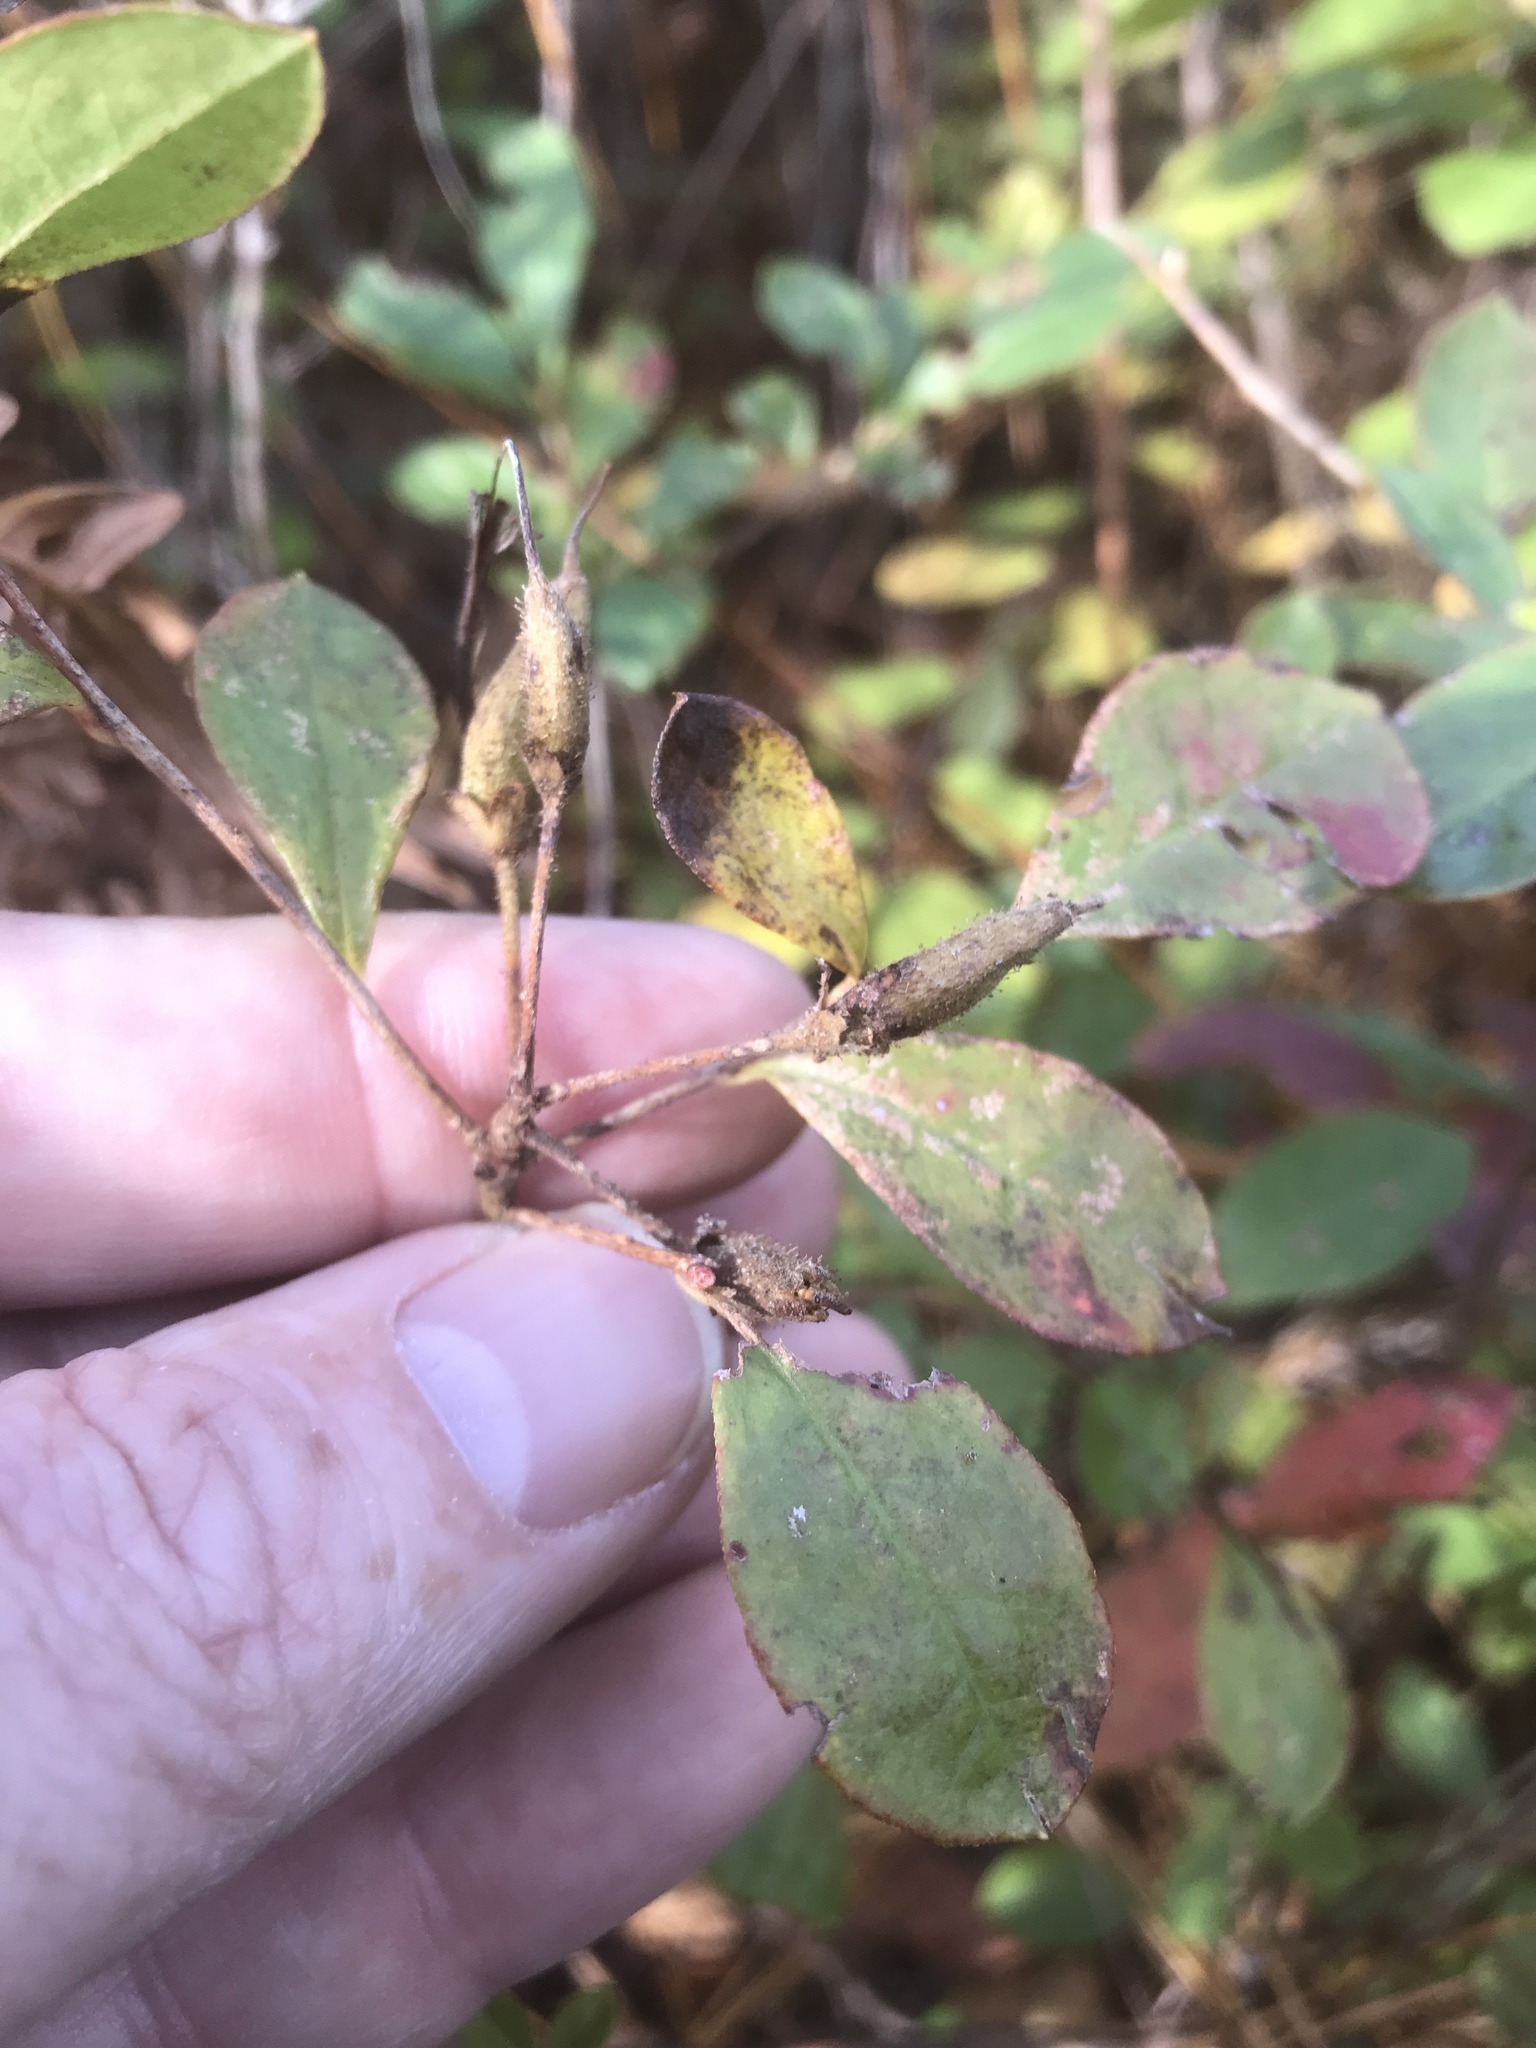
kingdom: Plantae
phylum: Tracheophyta
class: Magnoliopsida
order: Ericales
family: Ericaceae
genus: Rhododendron
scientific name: Rhododendron viscosum
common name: Clammy azalea
